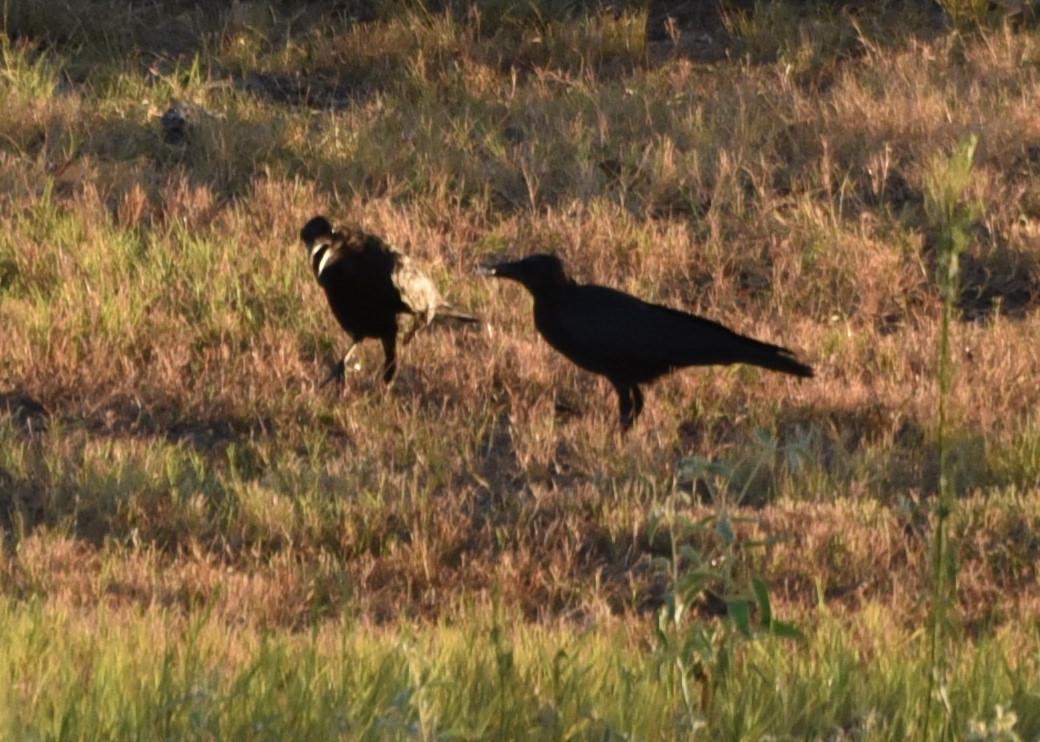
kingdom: Animalia
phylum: Chordata
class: Aves
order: Passeriformes
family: Corvidae
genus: Corvus
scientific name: Corvus brachyrhynchos
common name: American crow
